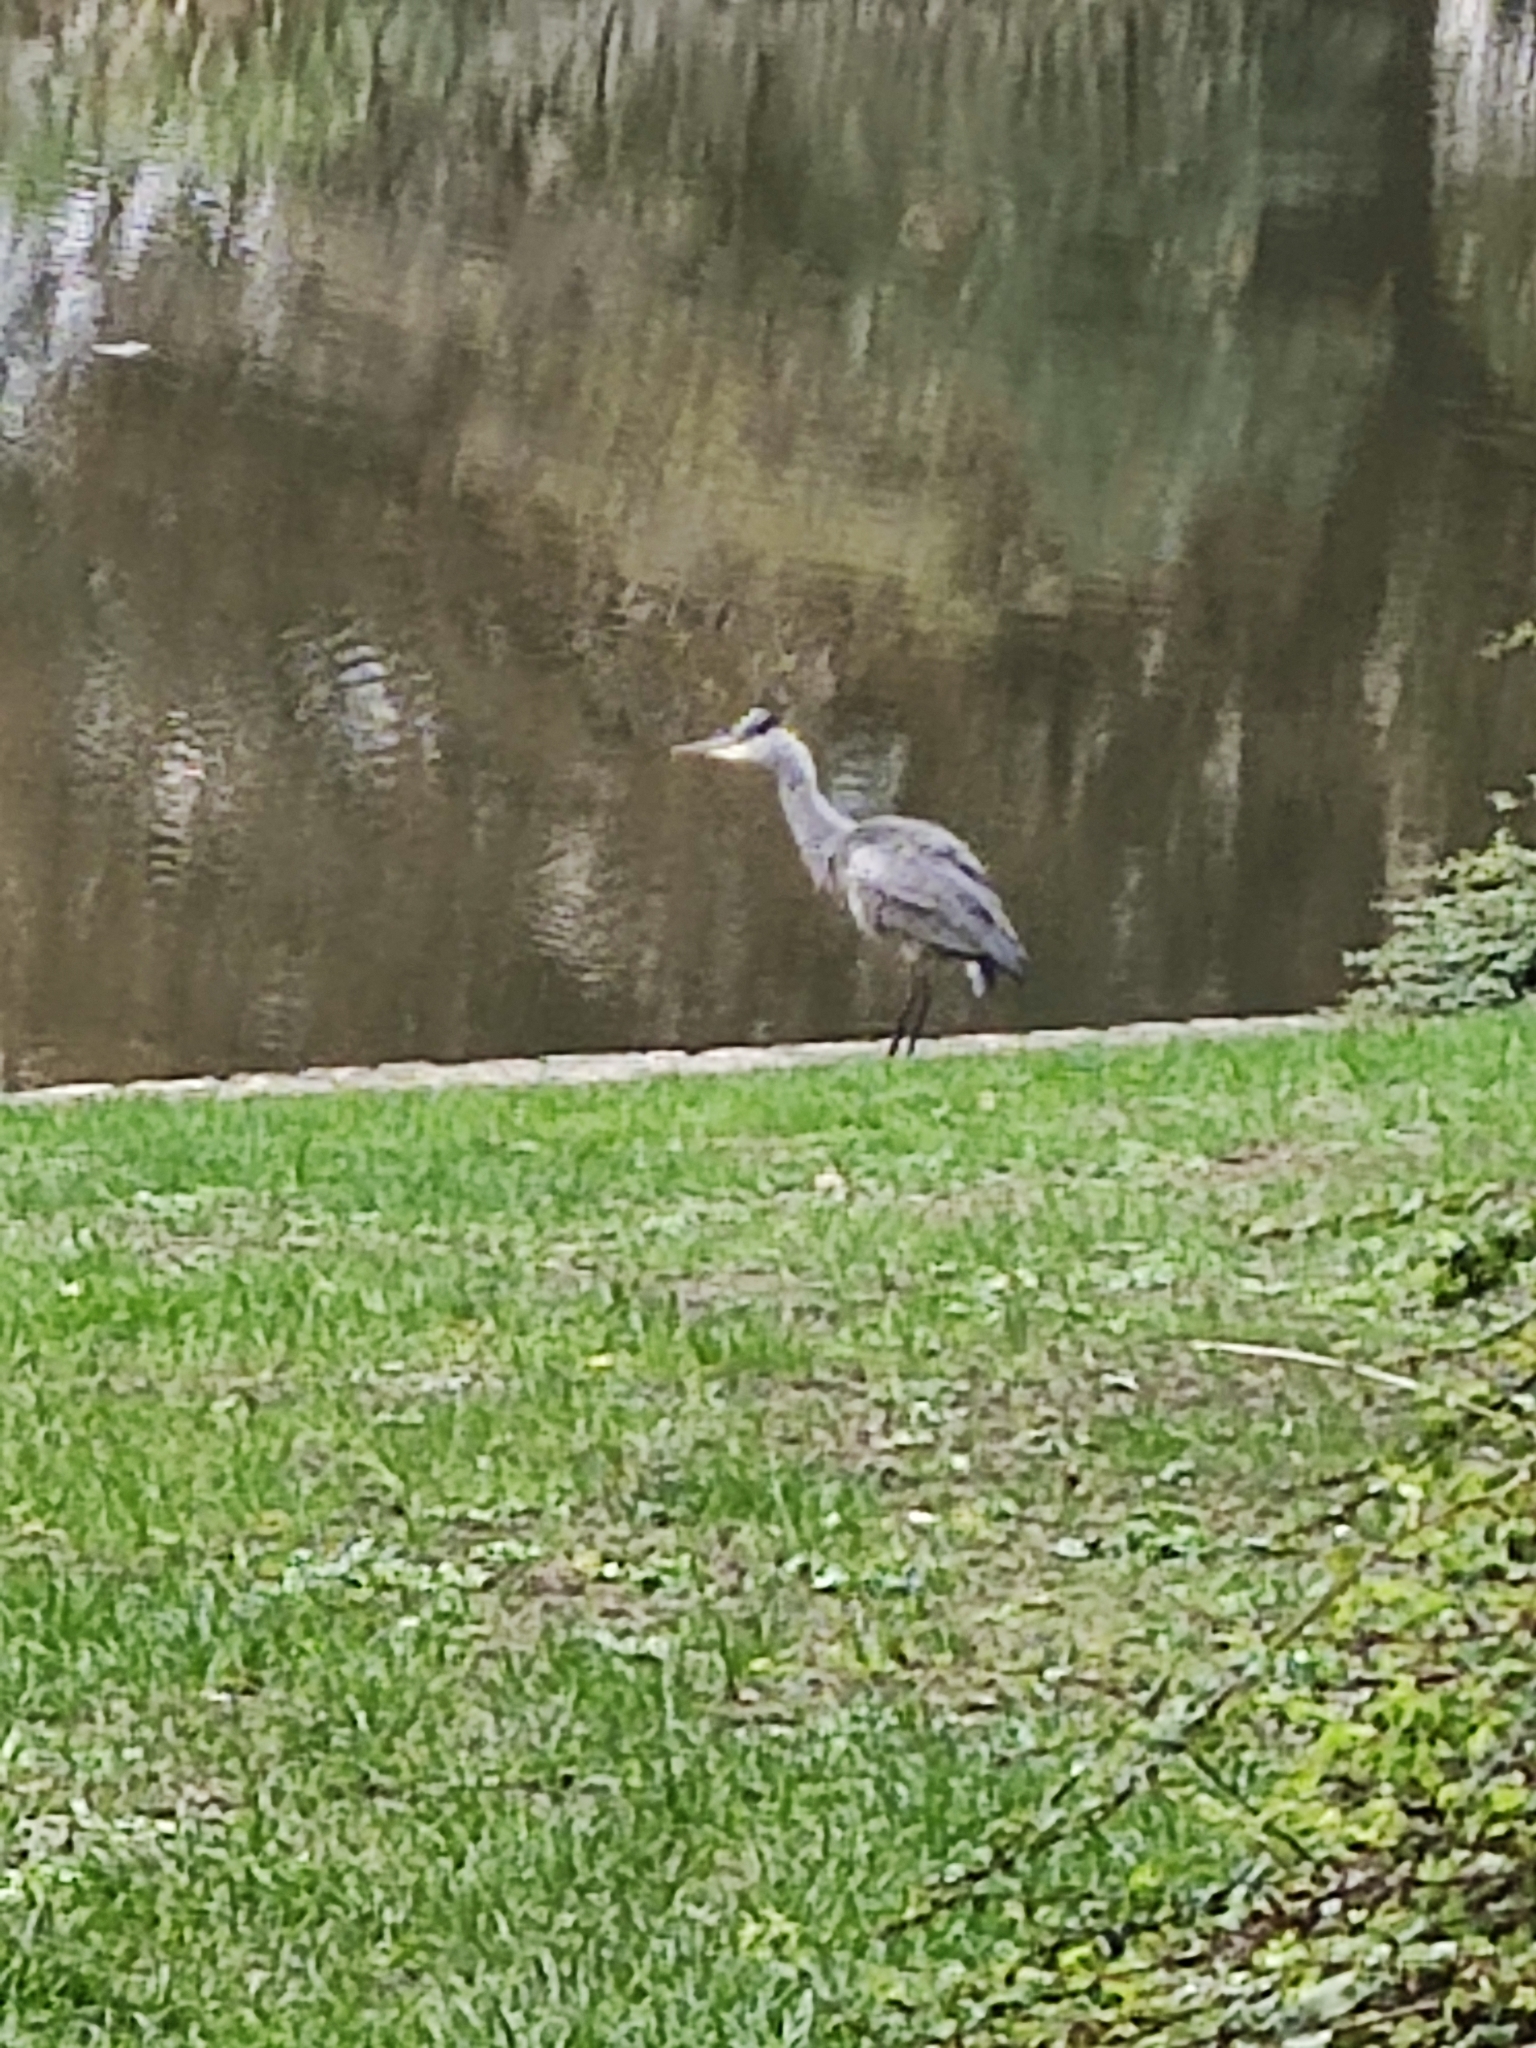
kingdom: Animalia
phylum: Chordata
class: Aves
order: Pelecaniformes
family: Ardeidae
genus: Ardea
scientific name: Ardea cinerea
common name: Grey heron
